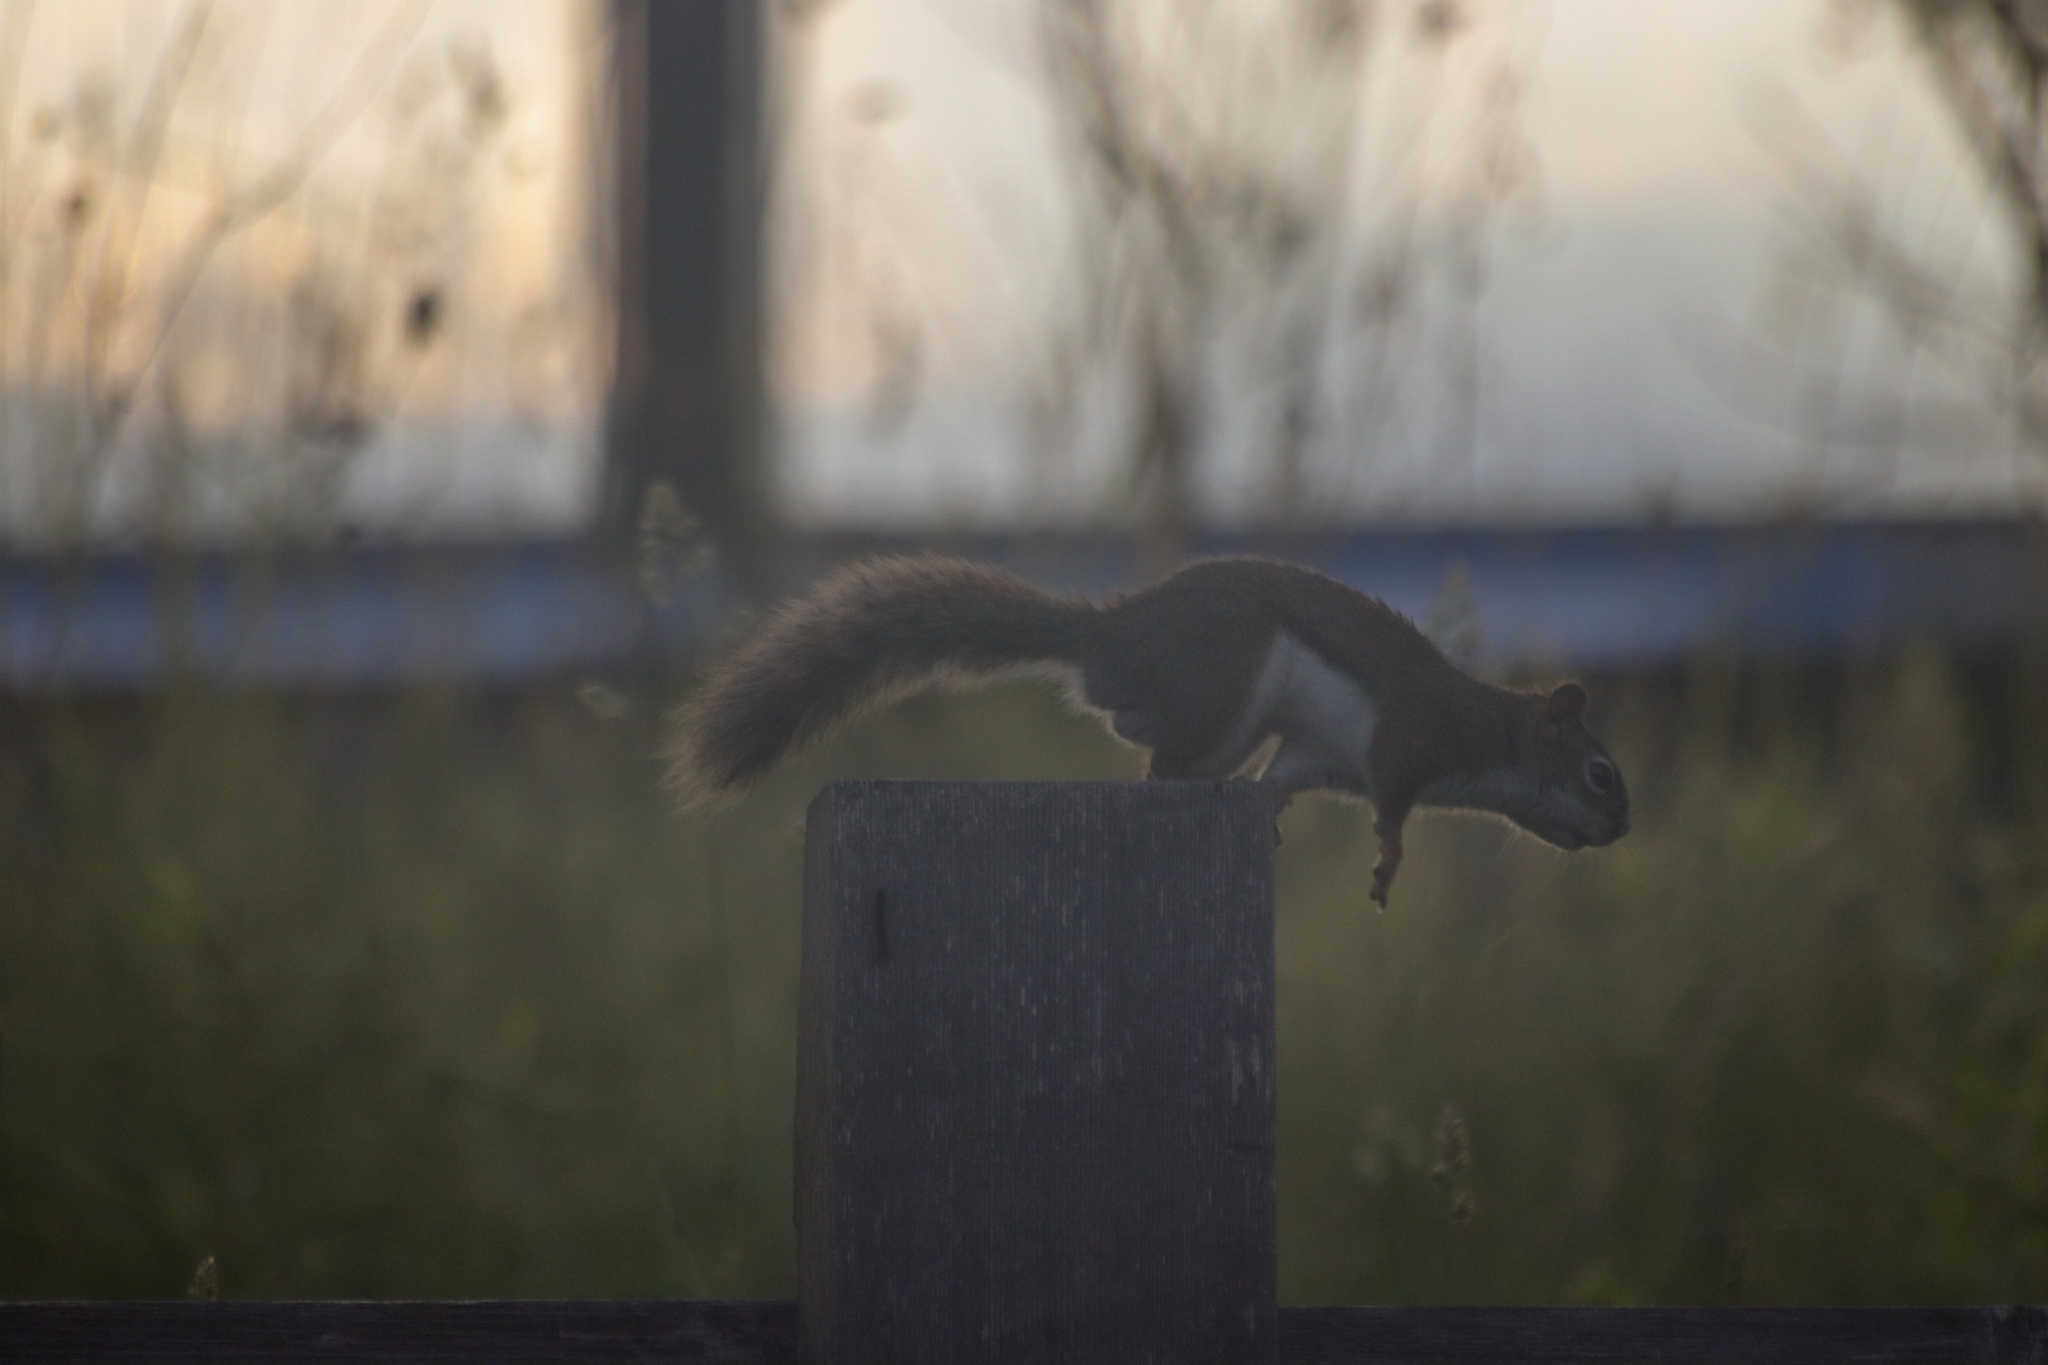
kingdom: Animalia
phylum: Chordata
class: Mammalia
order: Rodentia
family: Sciuridae
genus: Tamiasciurus
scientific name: Tamiasciurus hudsonicus
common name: Red squirrel
